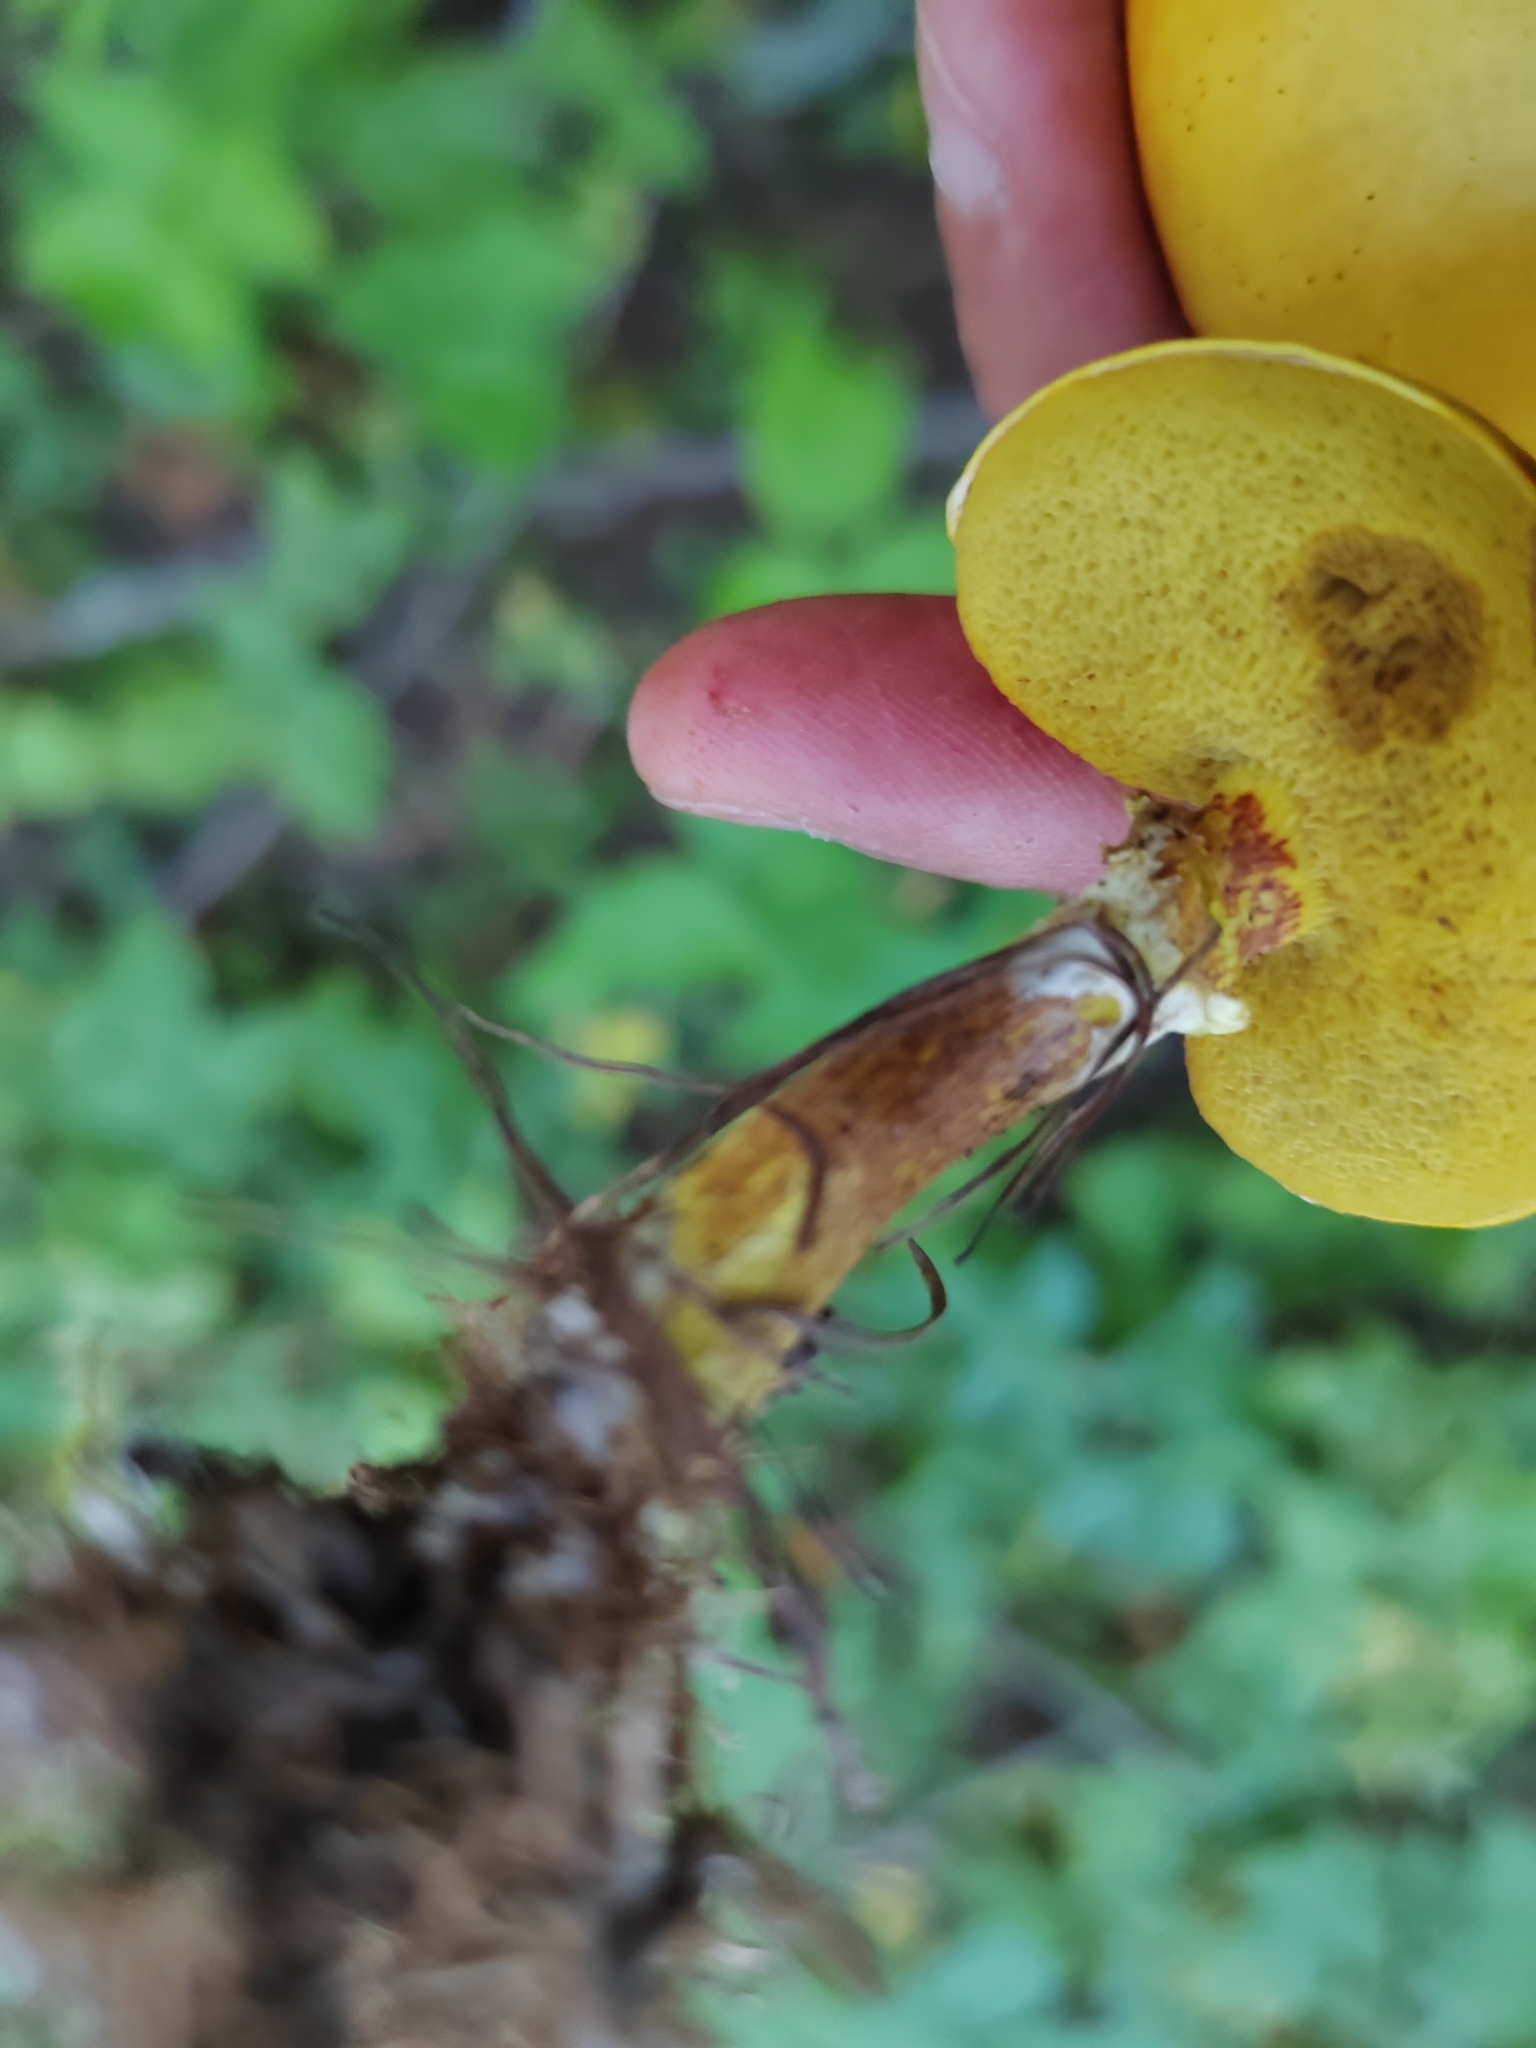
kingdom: Fungi
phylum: Basidiomycota
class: Agaricomycetes
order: Boletales
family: Suillaceae
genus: Suillus
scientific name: Suillus grevillei
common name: Larch bolete
